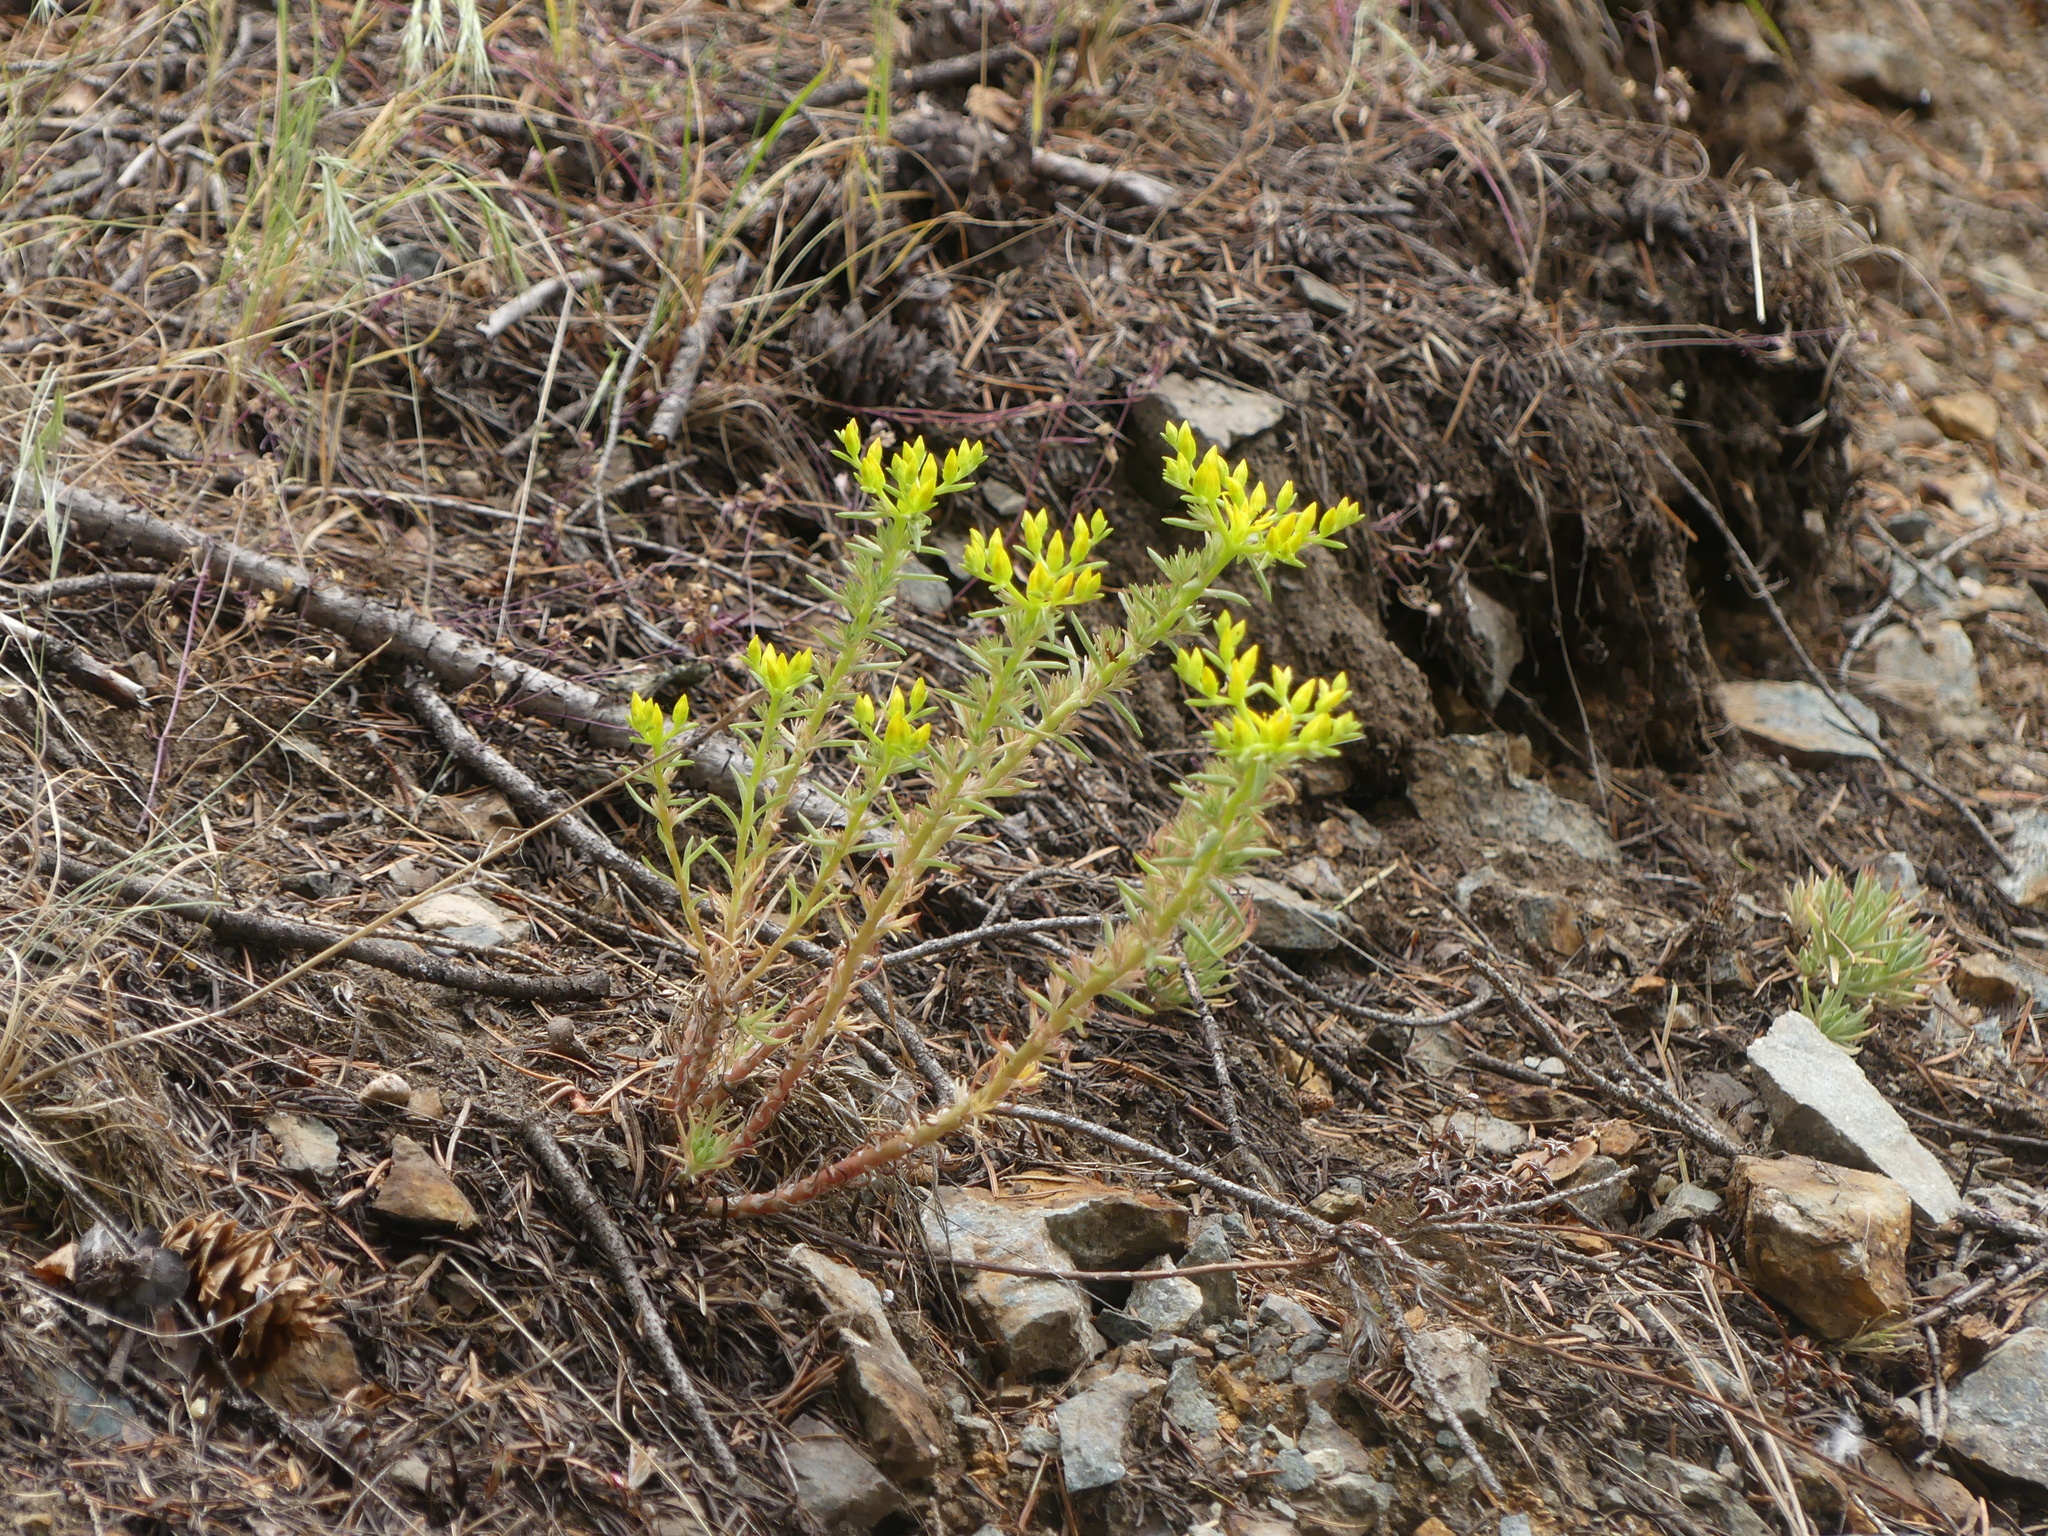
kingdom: Plantae
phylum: Tracheophyta
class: Magnoliopsida
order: Saxifragales
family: Crassulaceae
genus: Sedum
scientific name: Sedum stenopetalum
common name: Narrow-petaled stonecrop
